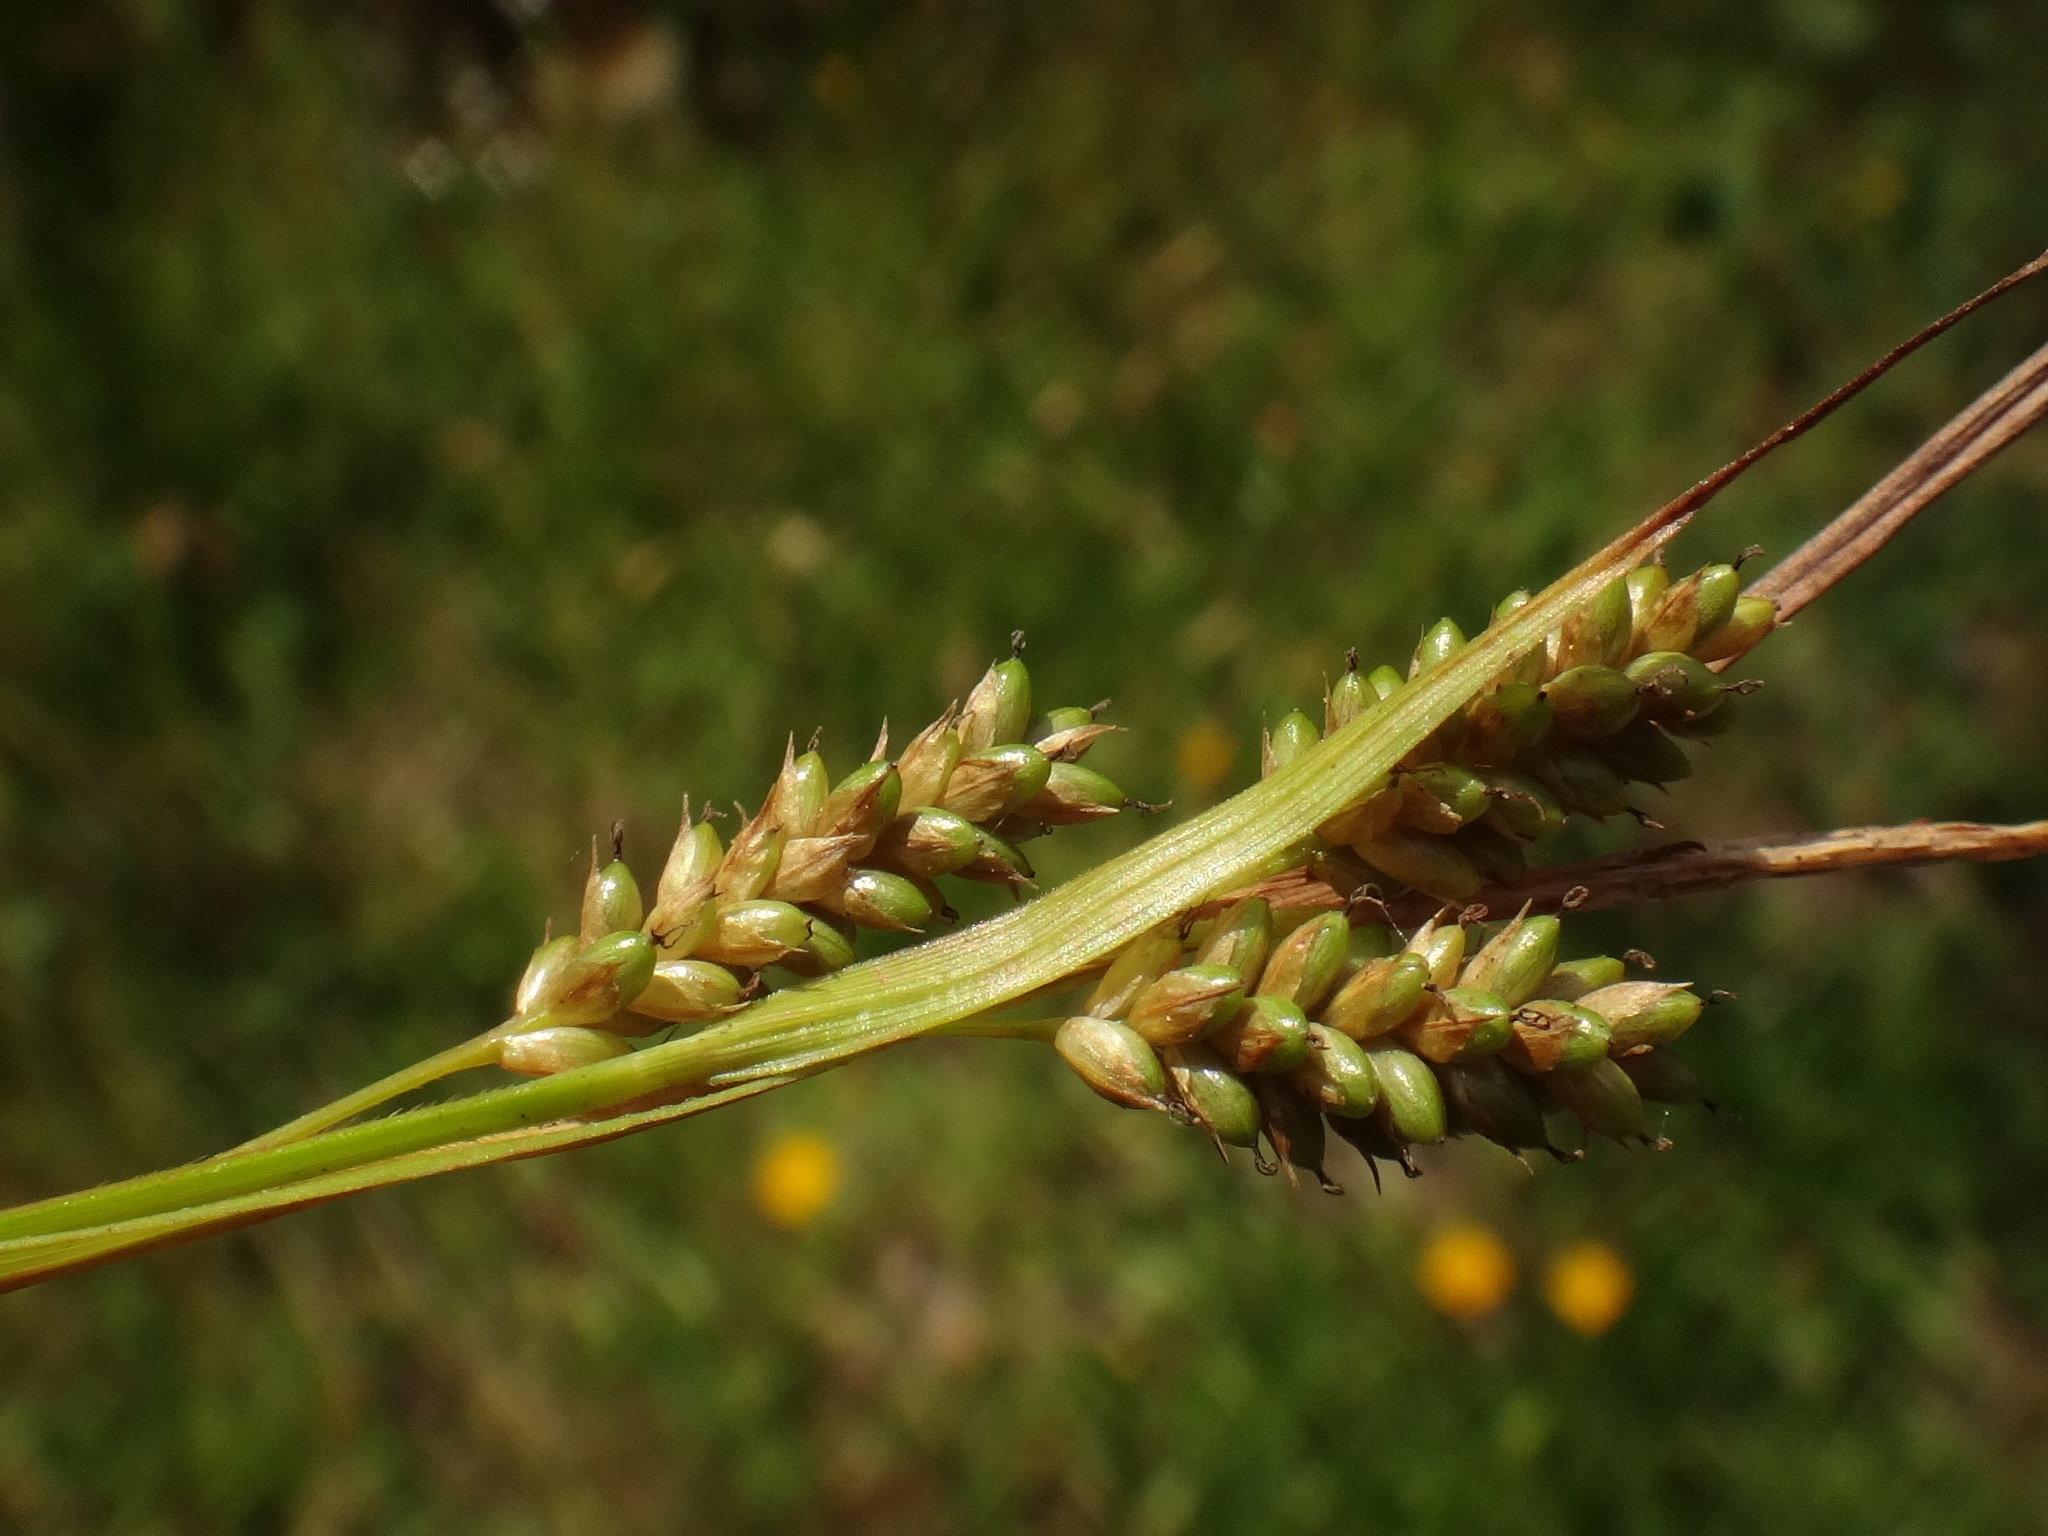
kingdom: Plantae
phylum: Tracheophyta
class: Liliopsida
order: Poales
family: Cyperaceae
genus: Carex
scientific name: Carex pallescens
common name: Pale sedge
